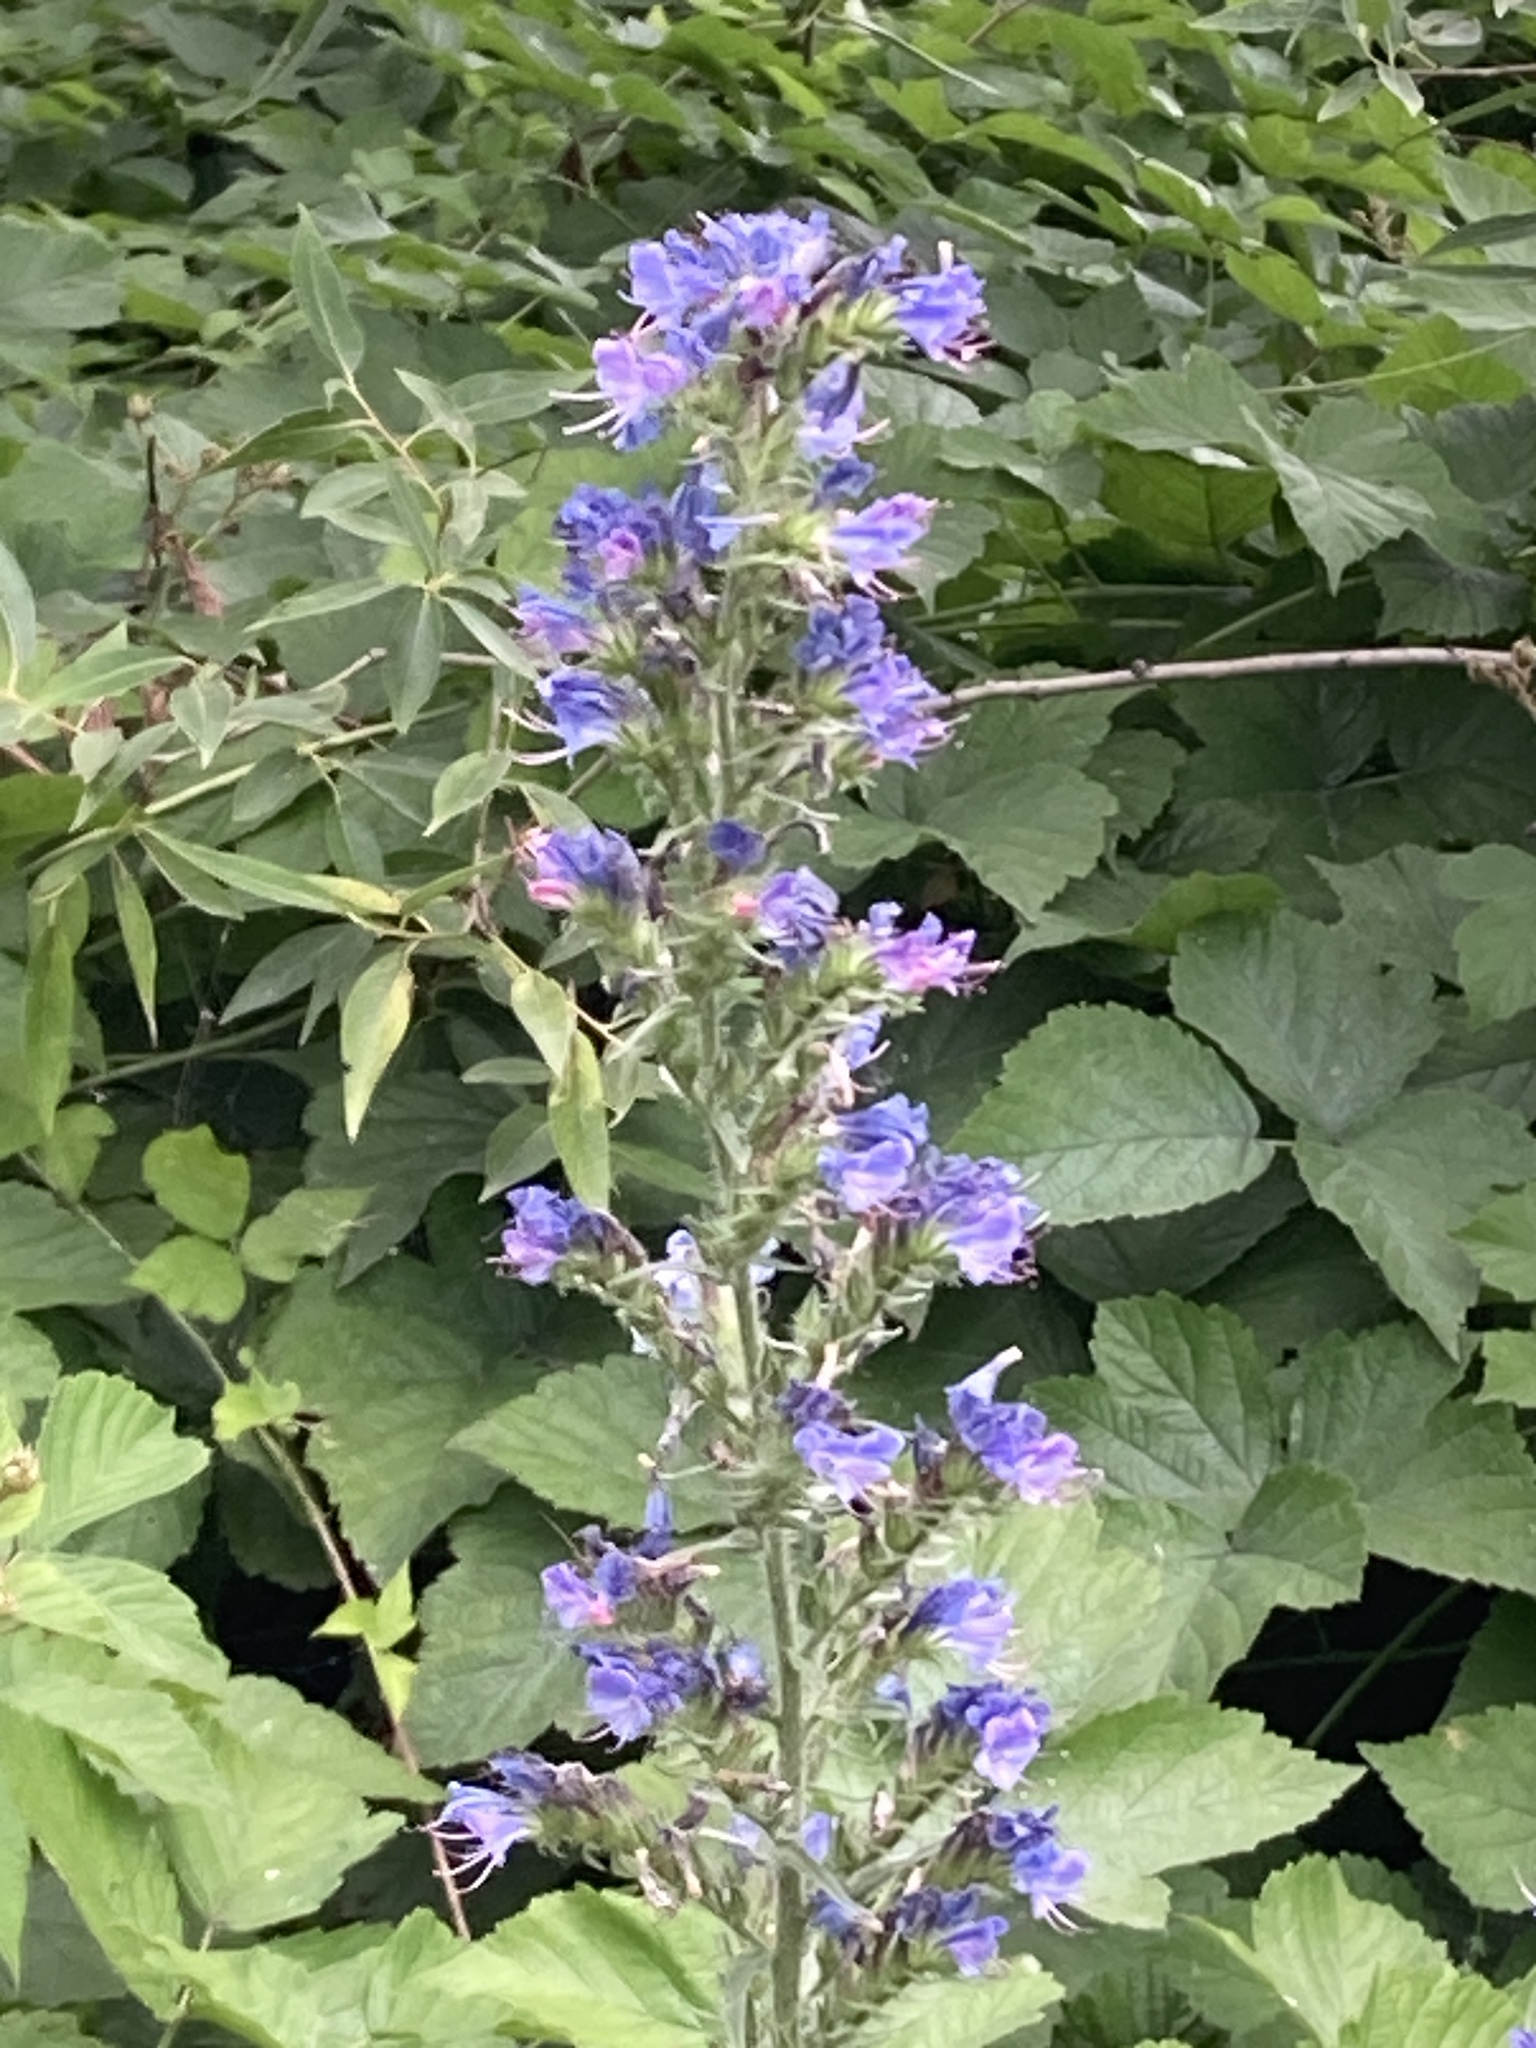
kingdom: Plantae
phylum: Tracheophyta
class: Magnoliopsida
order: Boraginales
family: Boraginaceae
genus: Echium
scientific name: Echium vulgare
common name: Common viper's bugloss
